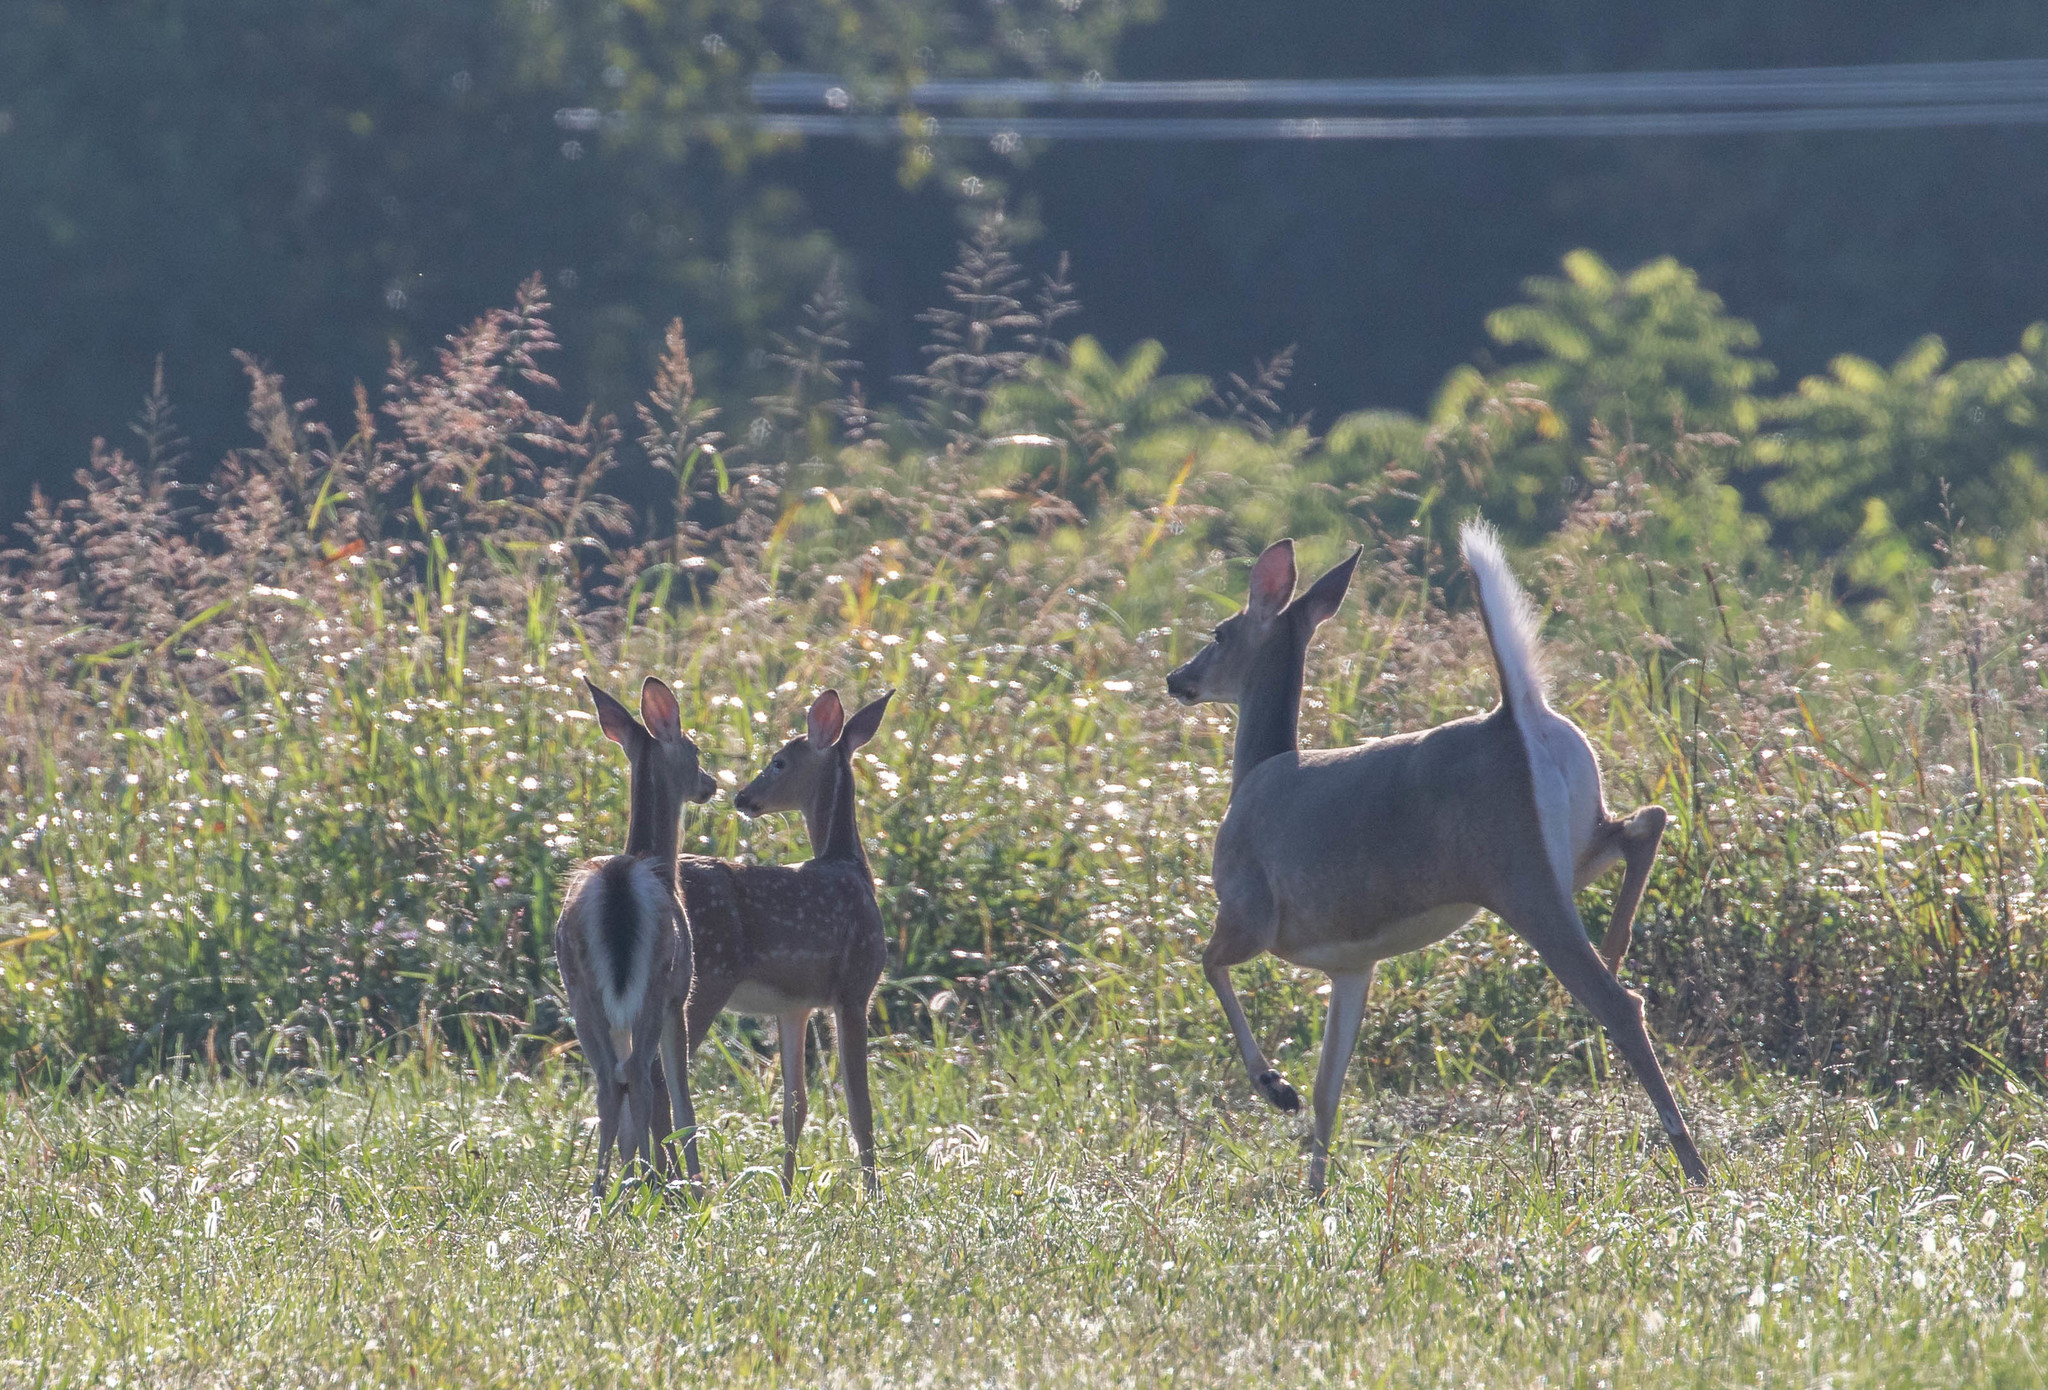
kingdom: Animalia
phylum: Chordata
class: Mammalia
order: Artiodactyla
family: Cervidae
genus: Odocoileus
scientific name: Odocoileus virginianus
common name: White-tailed deer
